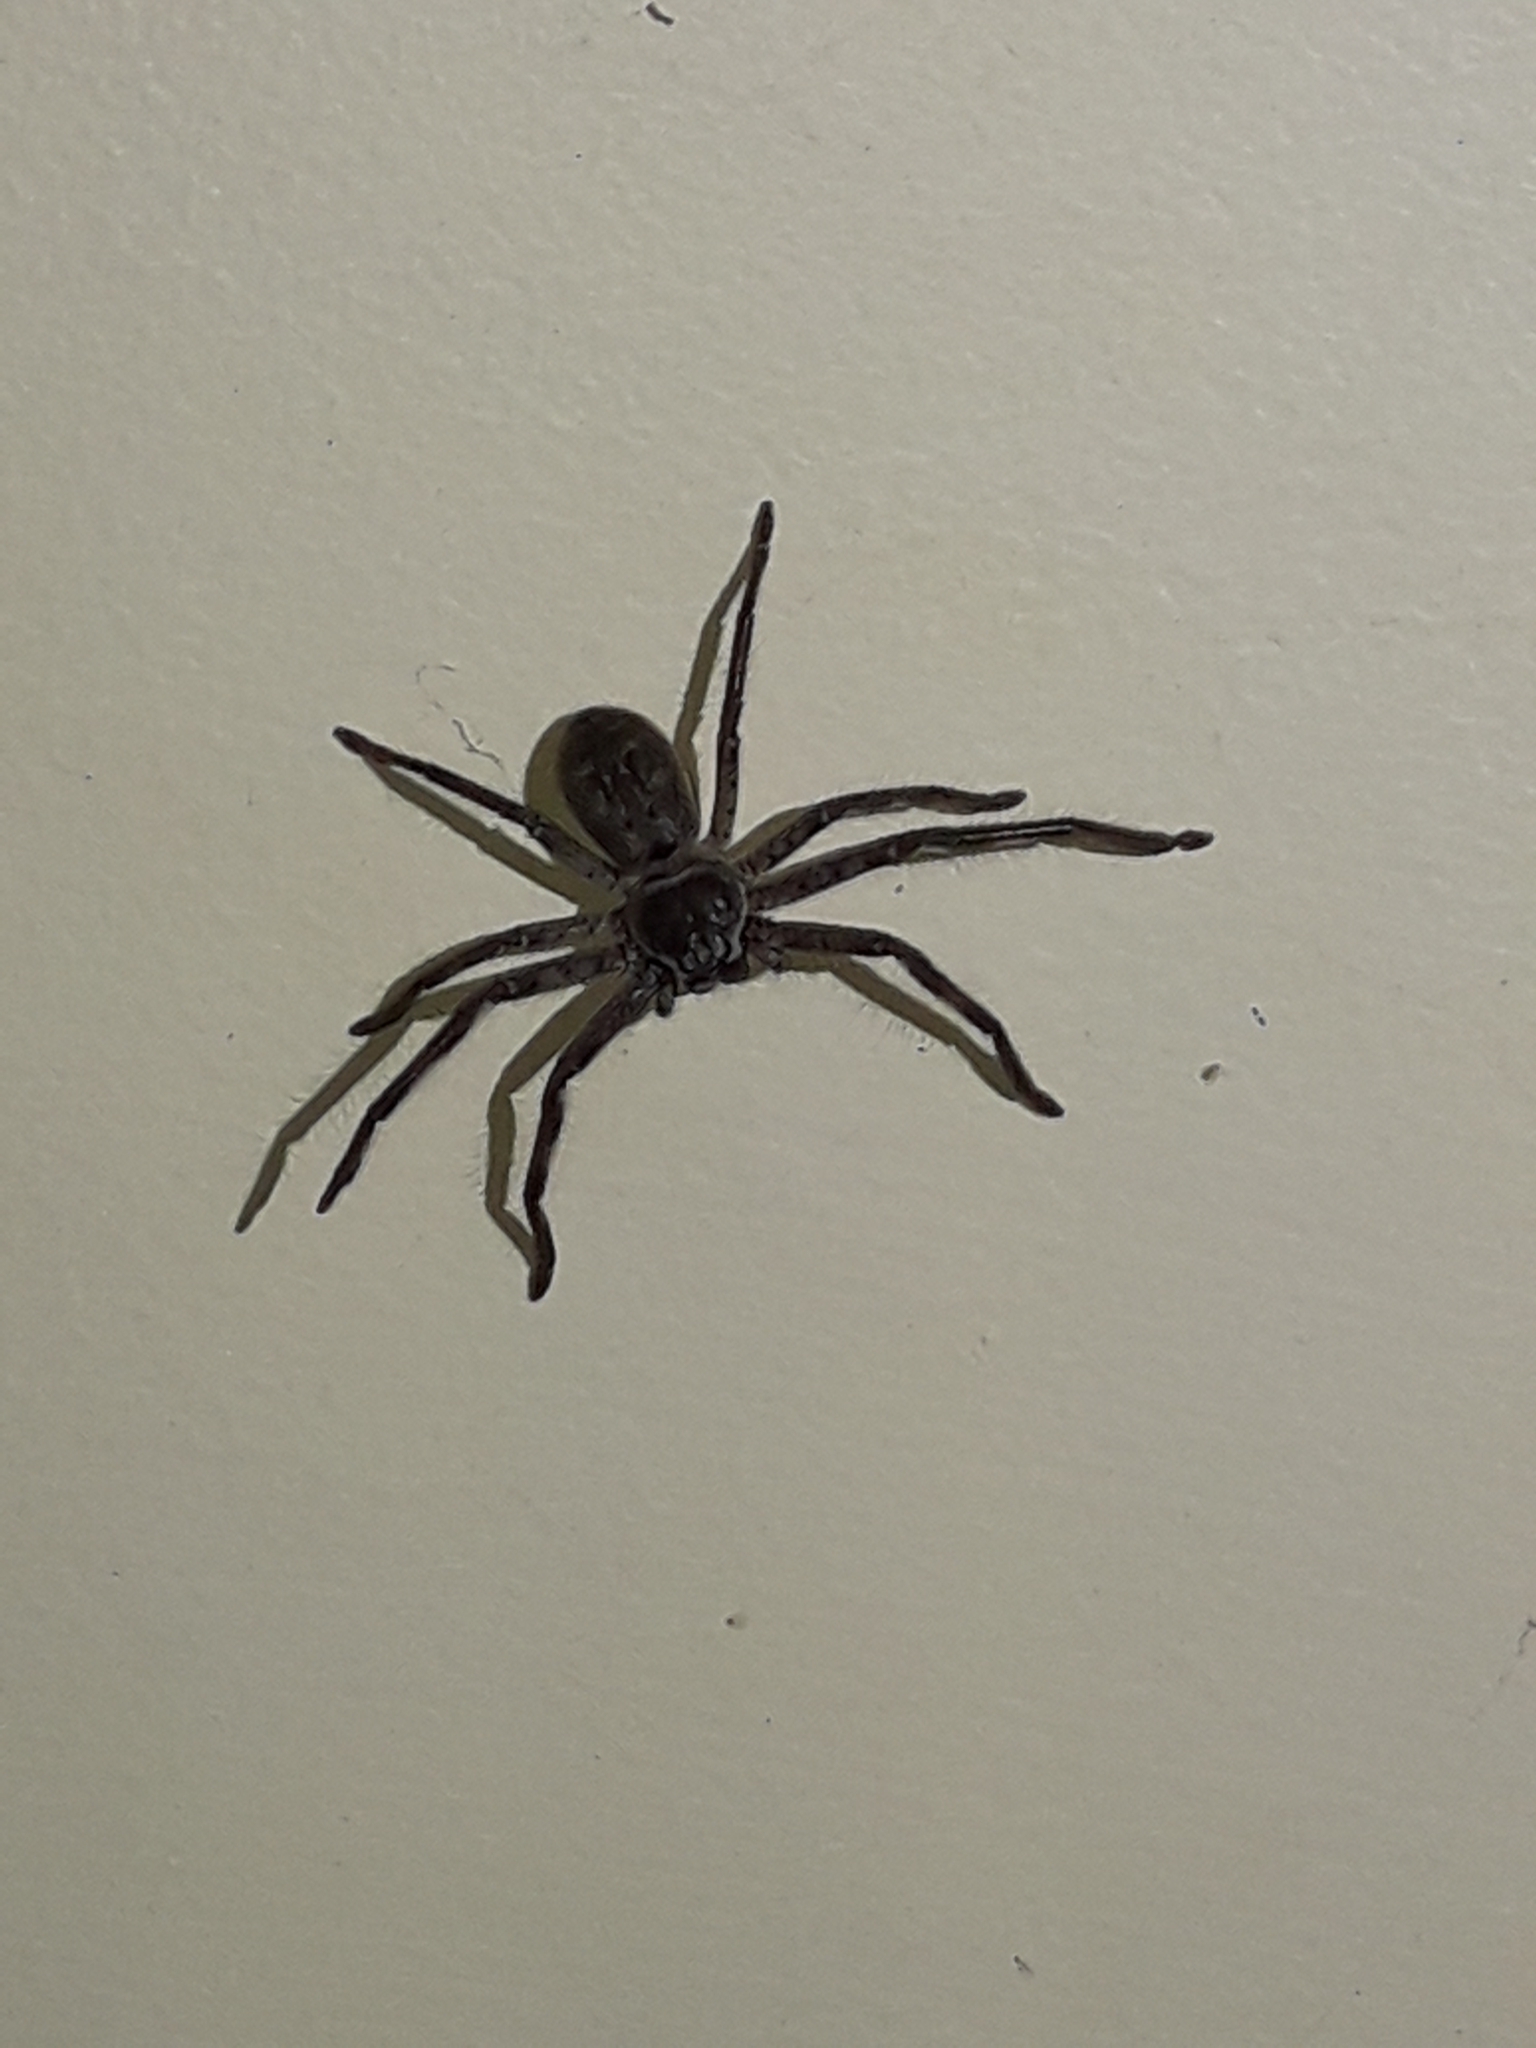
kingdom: Animalia
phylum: Arthropoda
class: Arachnida
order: Araneae
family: Sparassidae
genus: Isopeda
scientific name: Isopeda montana
